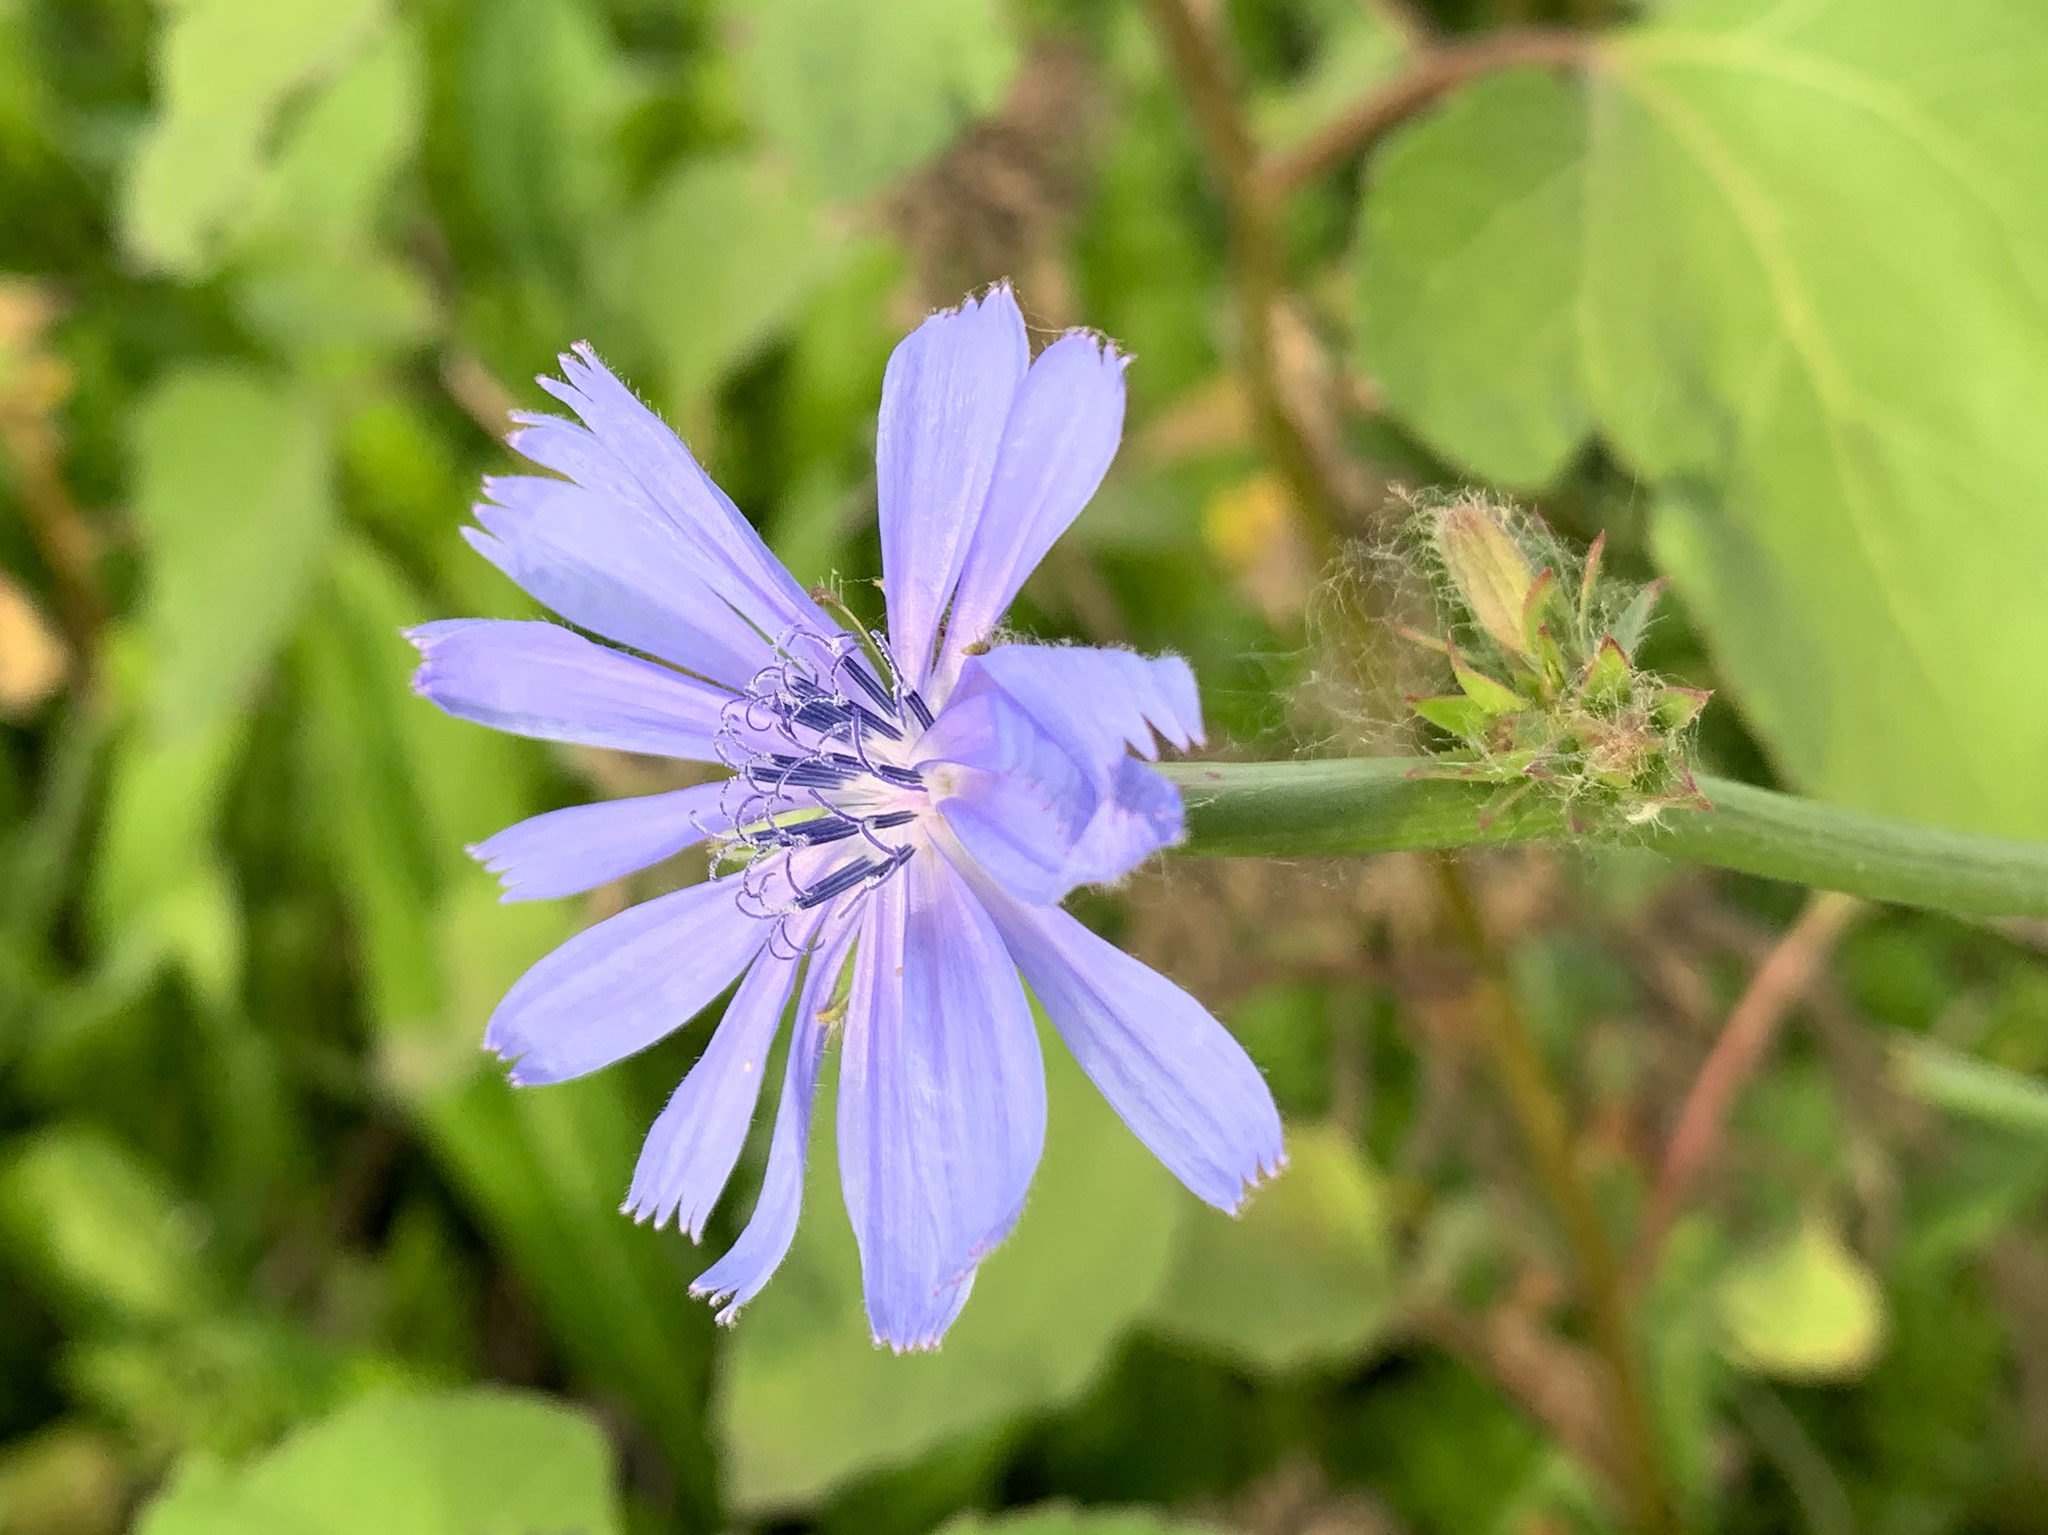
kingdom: Plantae
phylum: Tracheophyta
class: Magnoliopsida
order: Asterales
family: Asteraceae
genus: Cichorium
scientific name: Cichorium intybus
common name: Chicory
